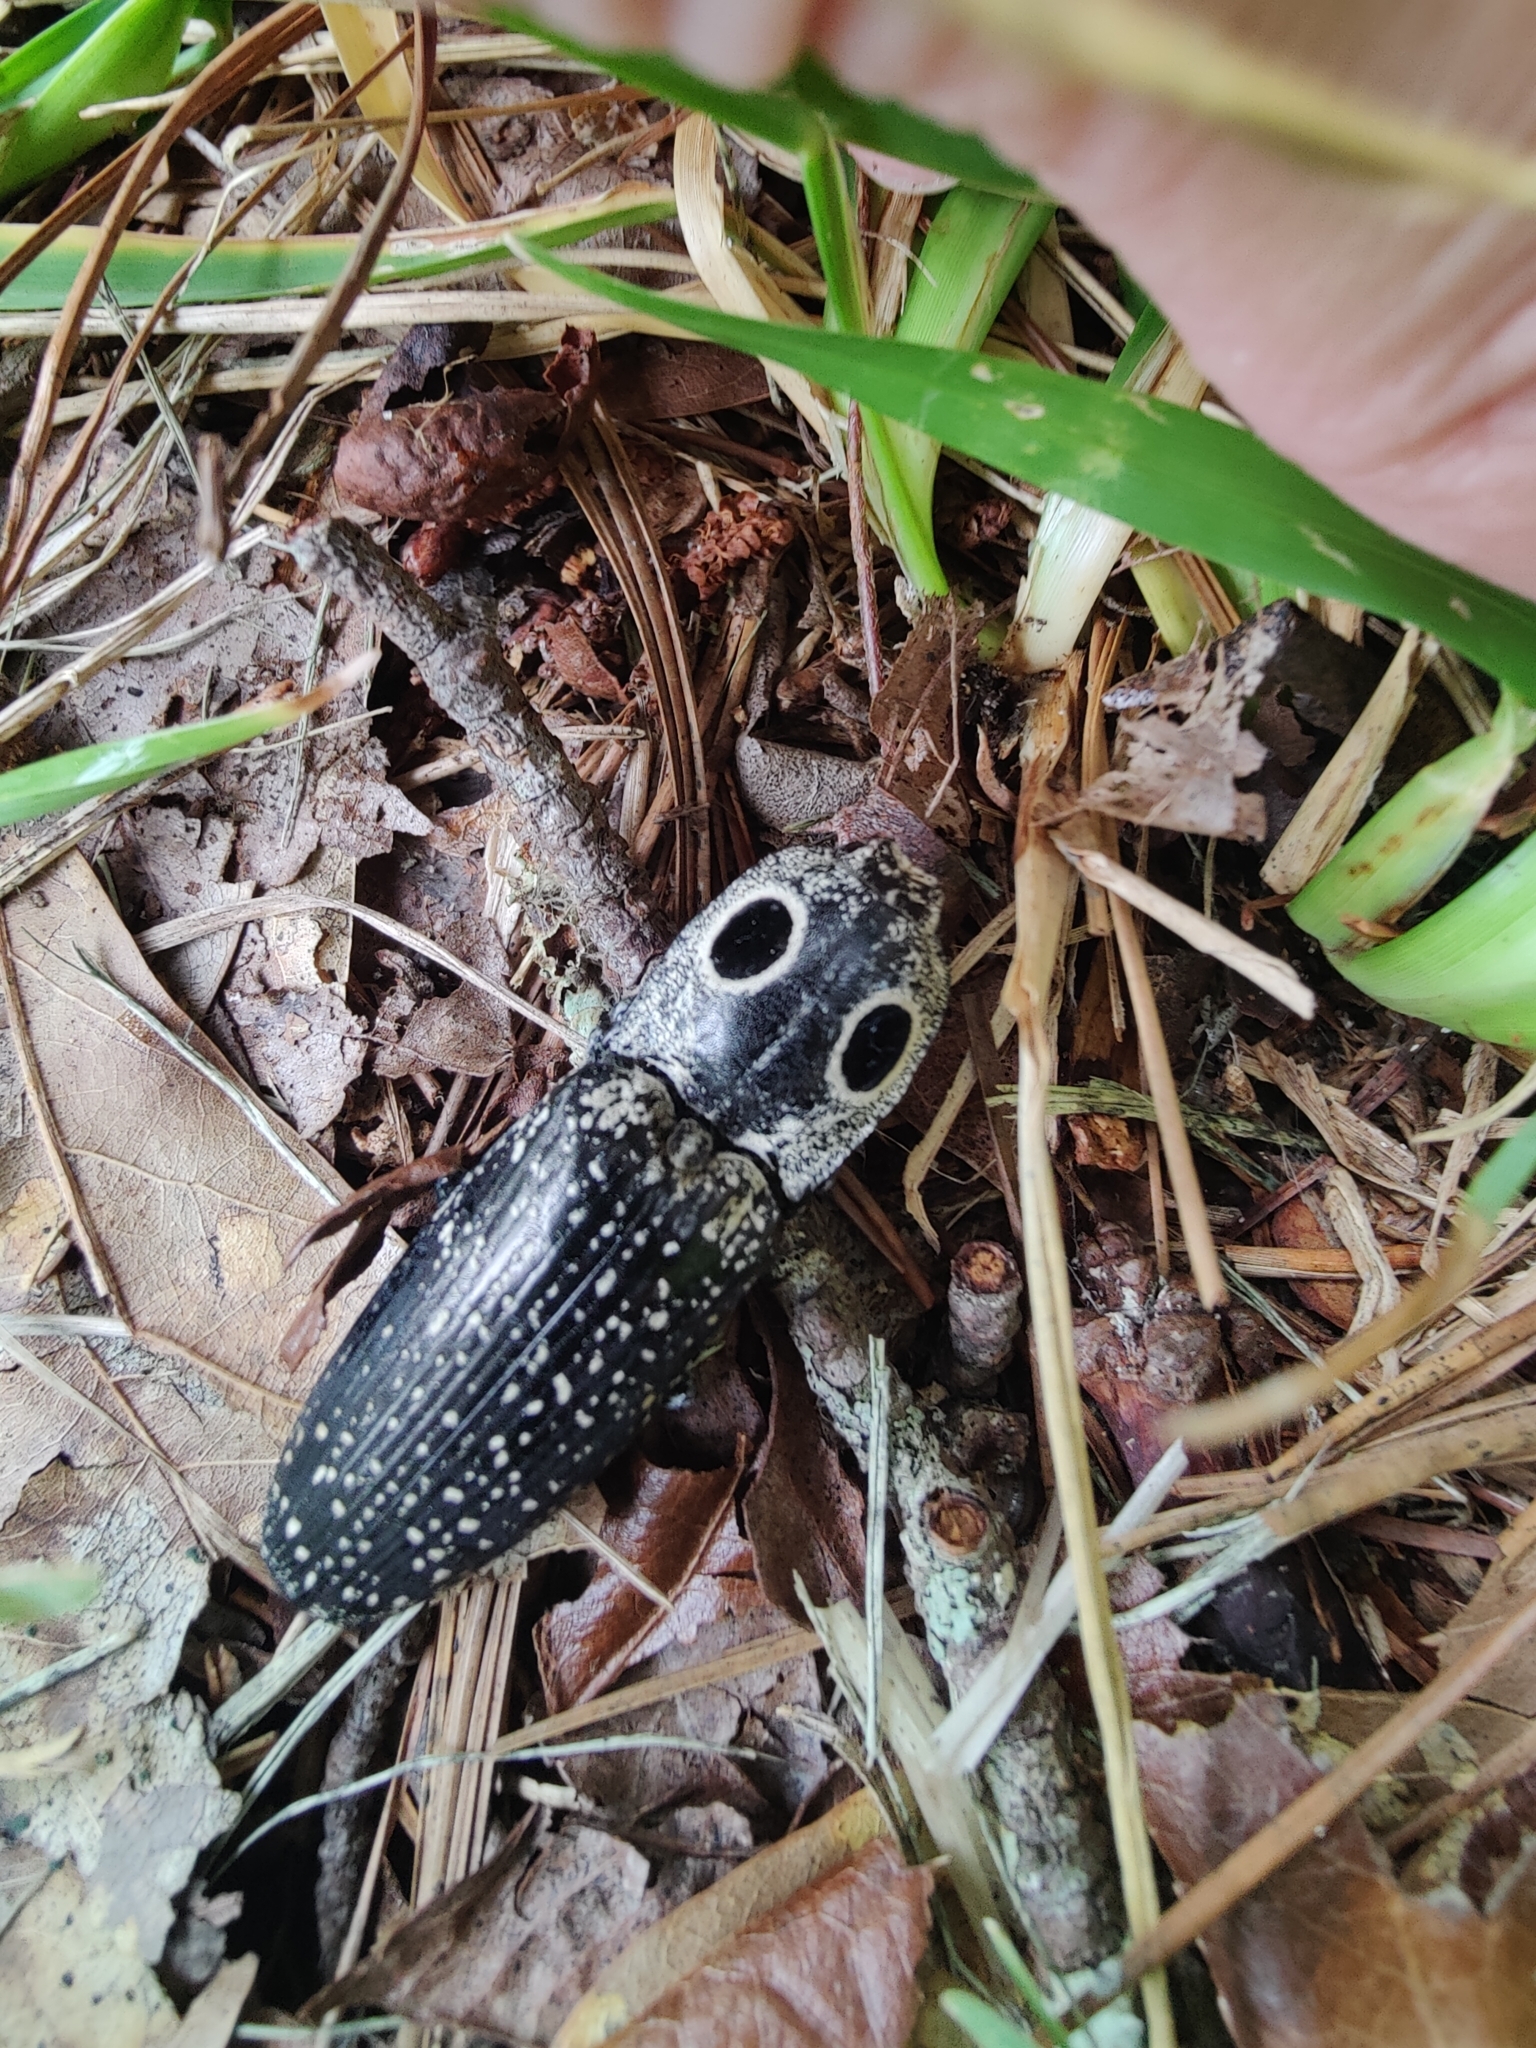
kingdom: Animalia
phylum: Arthropoda
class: Insecta
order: Coleoptera
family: Elateridae
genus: Alaus
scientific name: Alaus oculatus
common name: Eastern eyed click beetle
